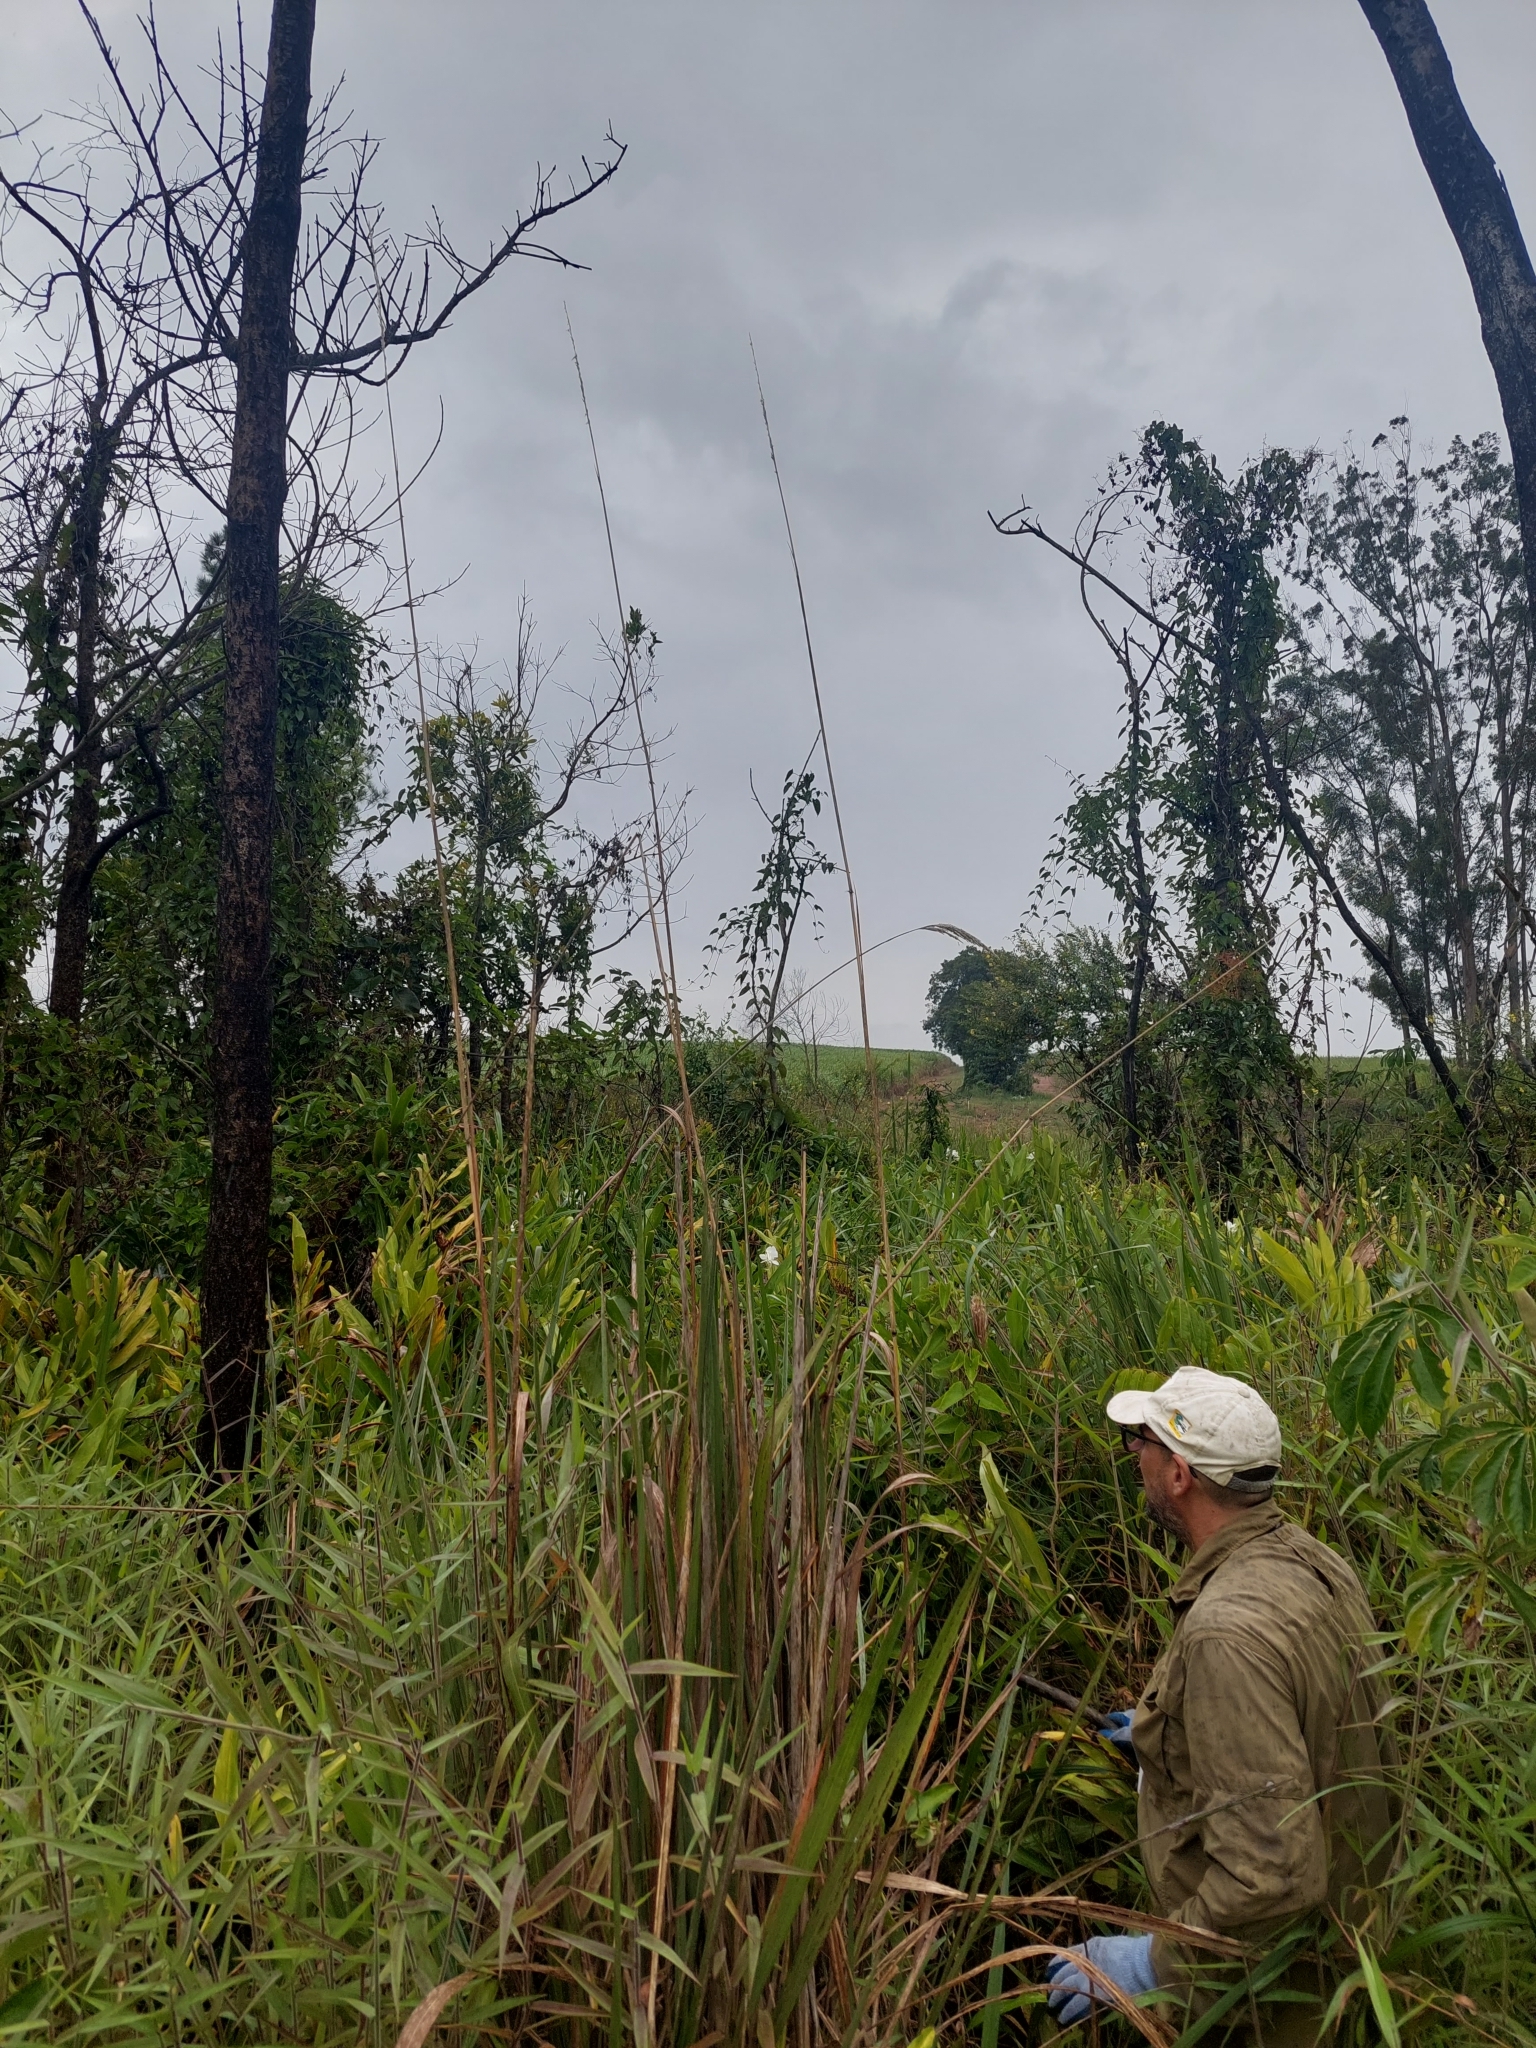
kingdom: Plantae
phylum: Tracheophyta
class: Liliopsida
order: Zingiberales
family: Zingiberaceae
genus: Hedychium
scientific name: Hedychium coronarium
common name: White garland-lily
